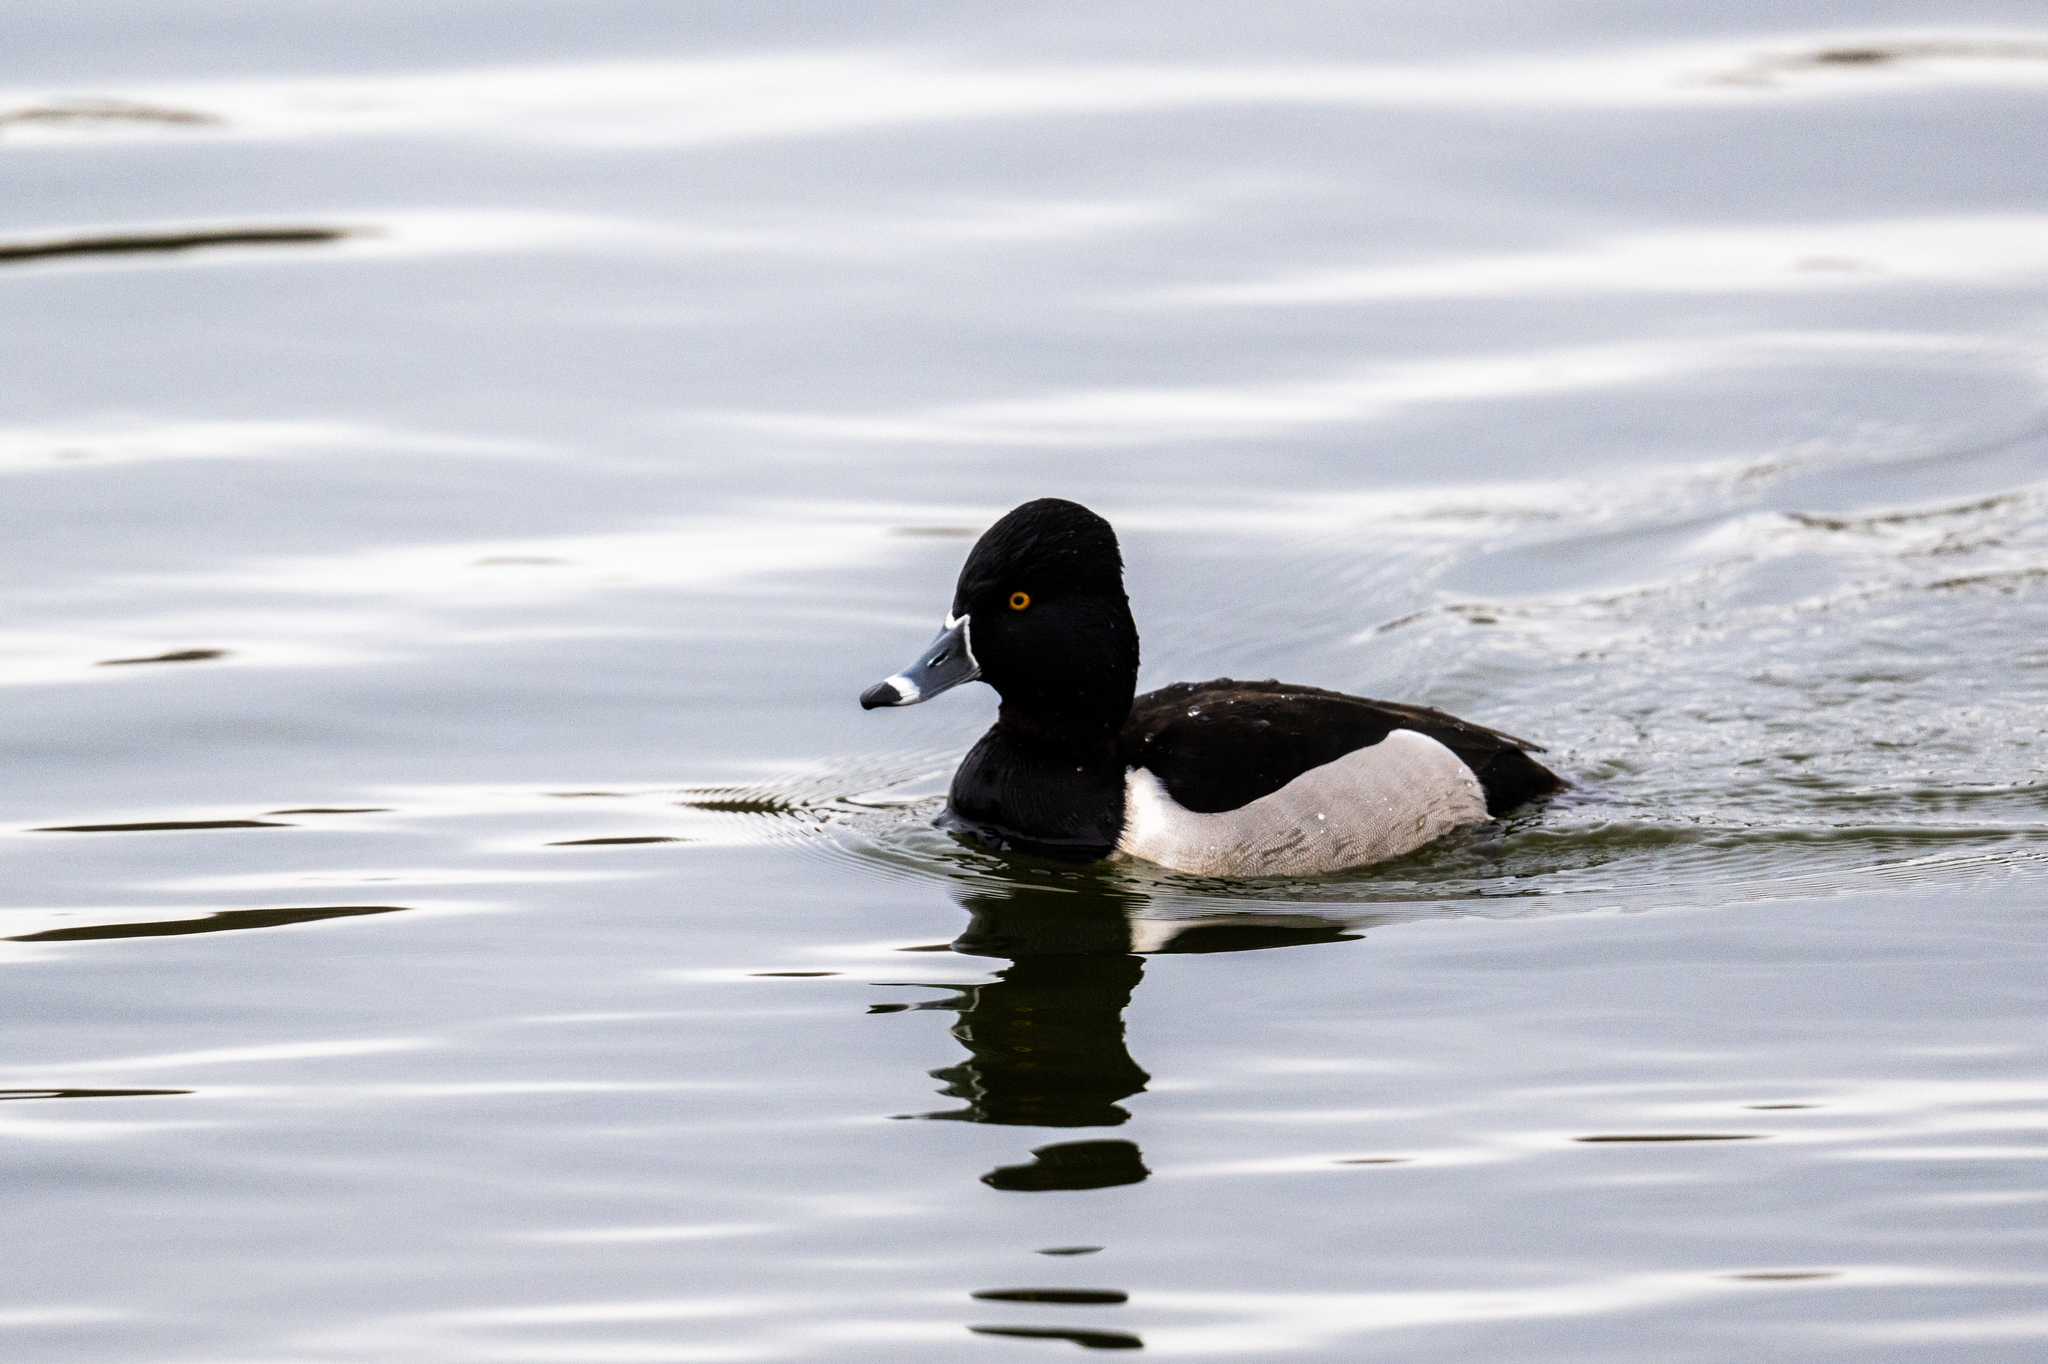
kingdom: Animalia
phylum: Chordata
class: Aves
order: Anseriformes
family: Anatidae
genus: Aythya
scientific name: Aythya collaris
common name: Ring-necked duck
